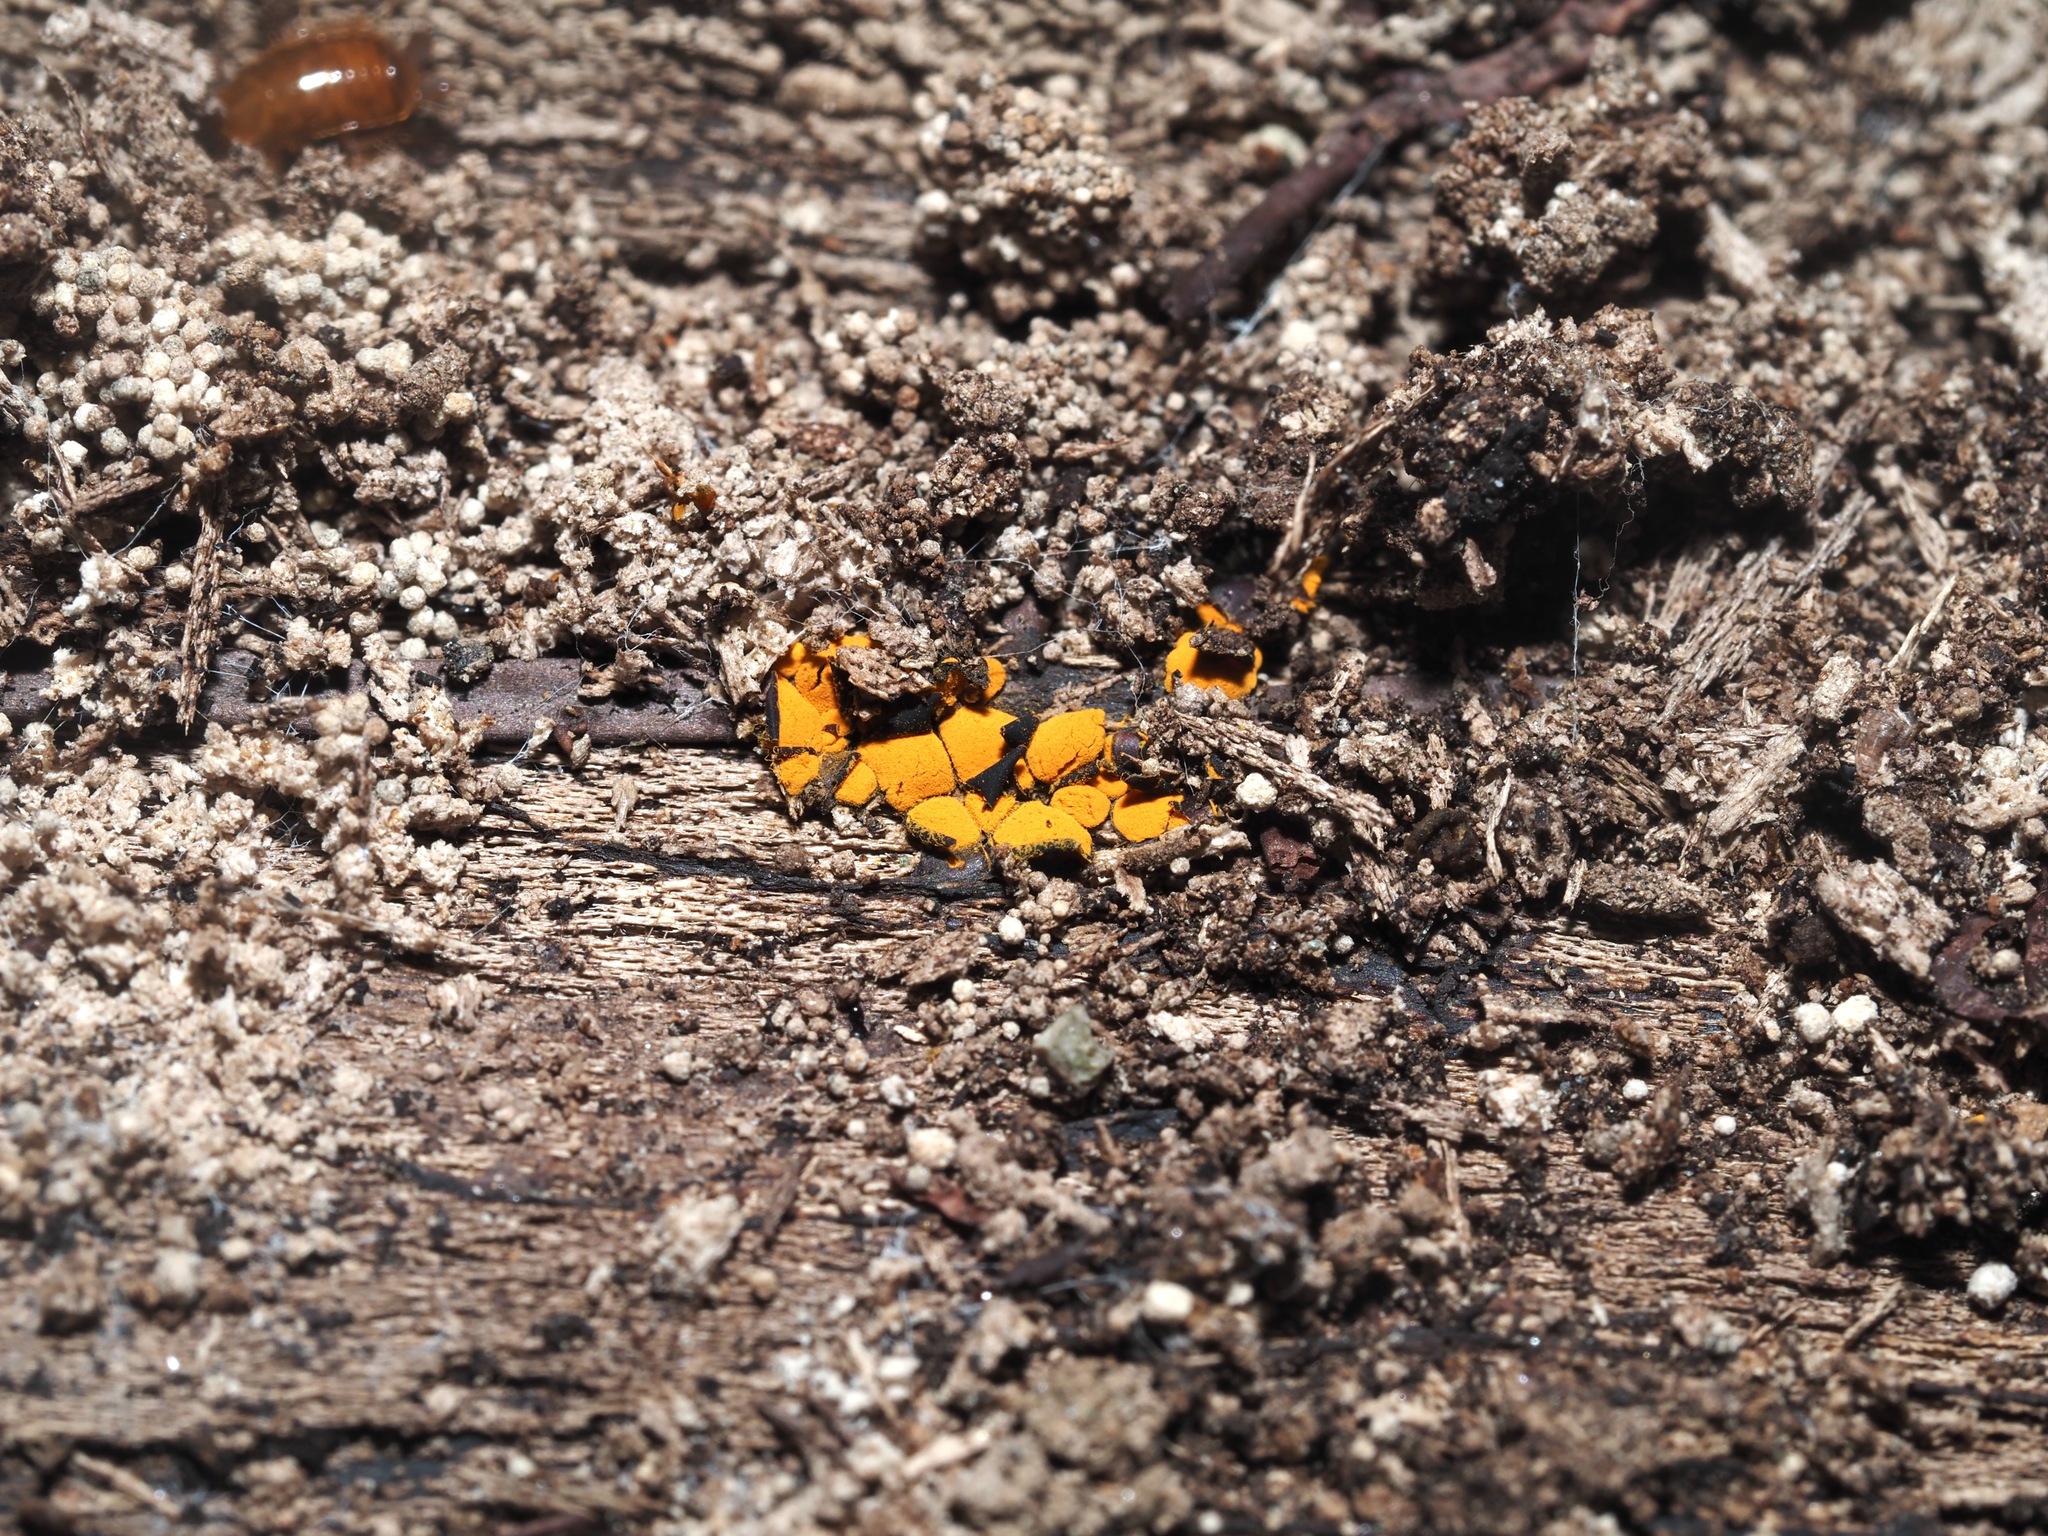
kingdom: Protozoa
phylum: Mycetozoa
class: Myxomycetes
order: Trichiales
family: Trichiaceae
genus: Perichaena
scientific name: Perichaena depressa
